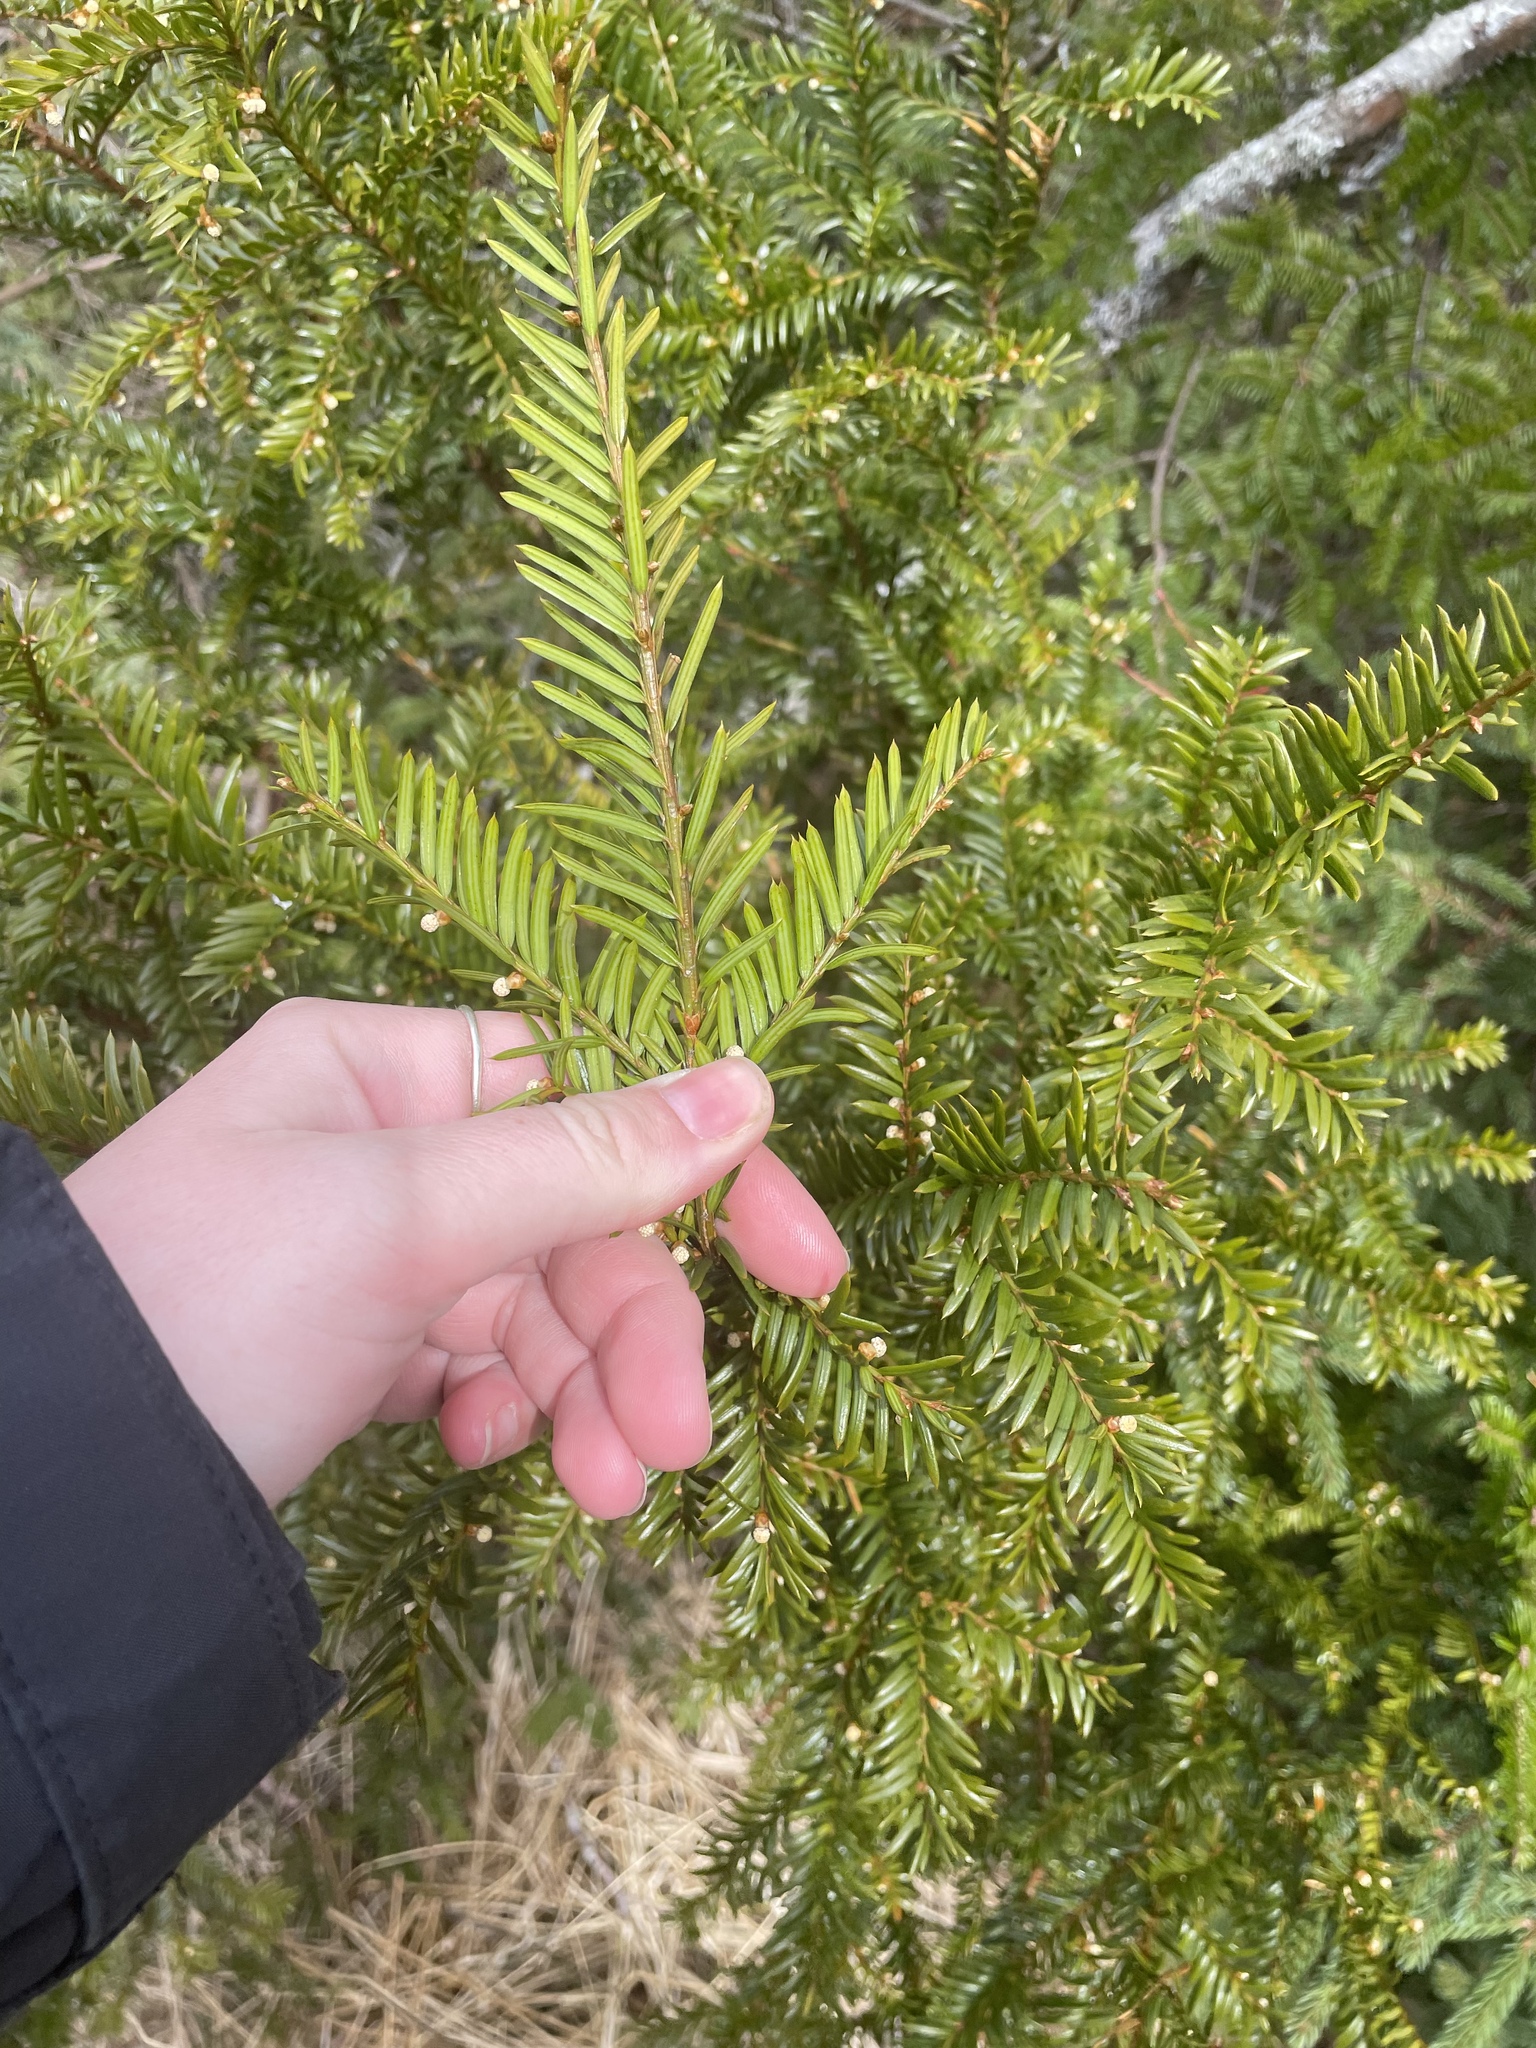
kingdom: Plantae
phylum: Tracheophyta
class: Pinopsida
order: Pinales
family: Taxaceae
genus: Taxus
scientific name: Taxus canadensis
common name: American yew
